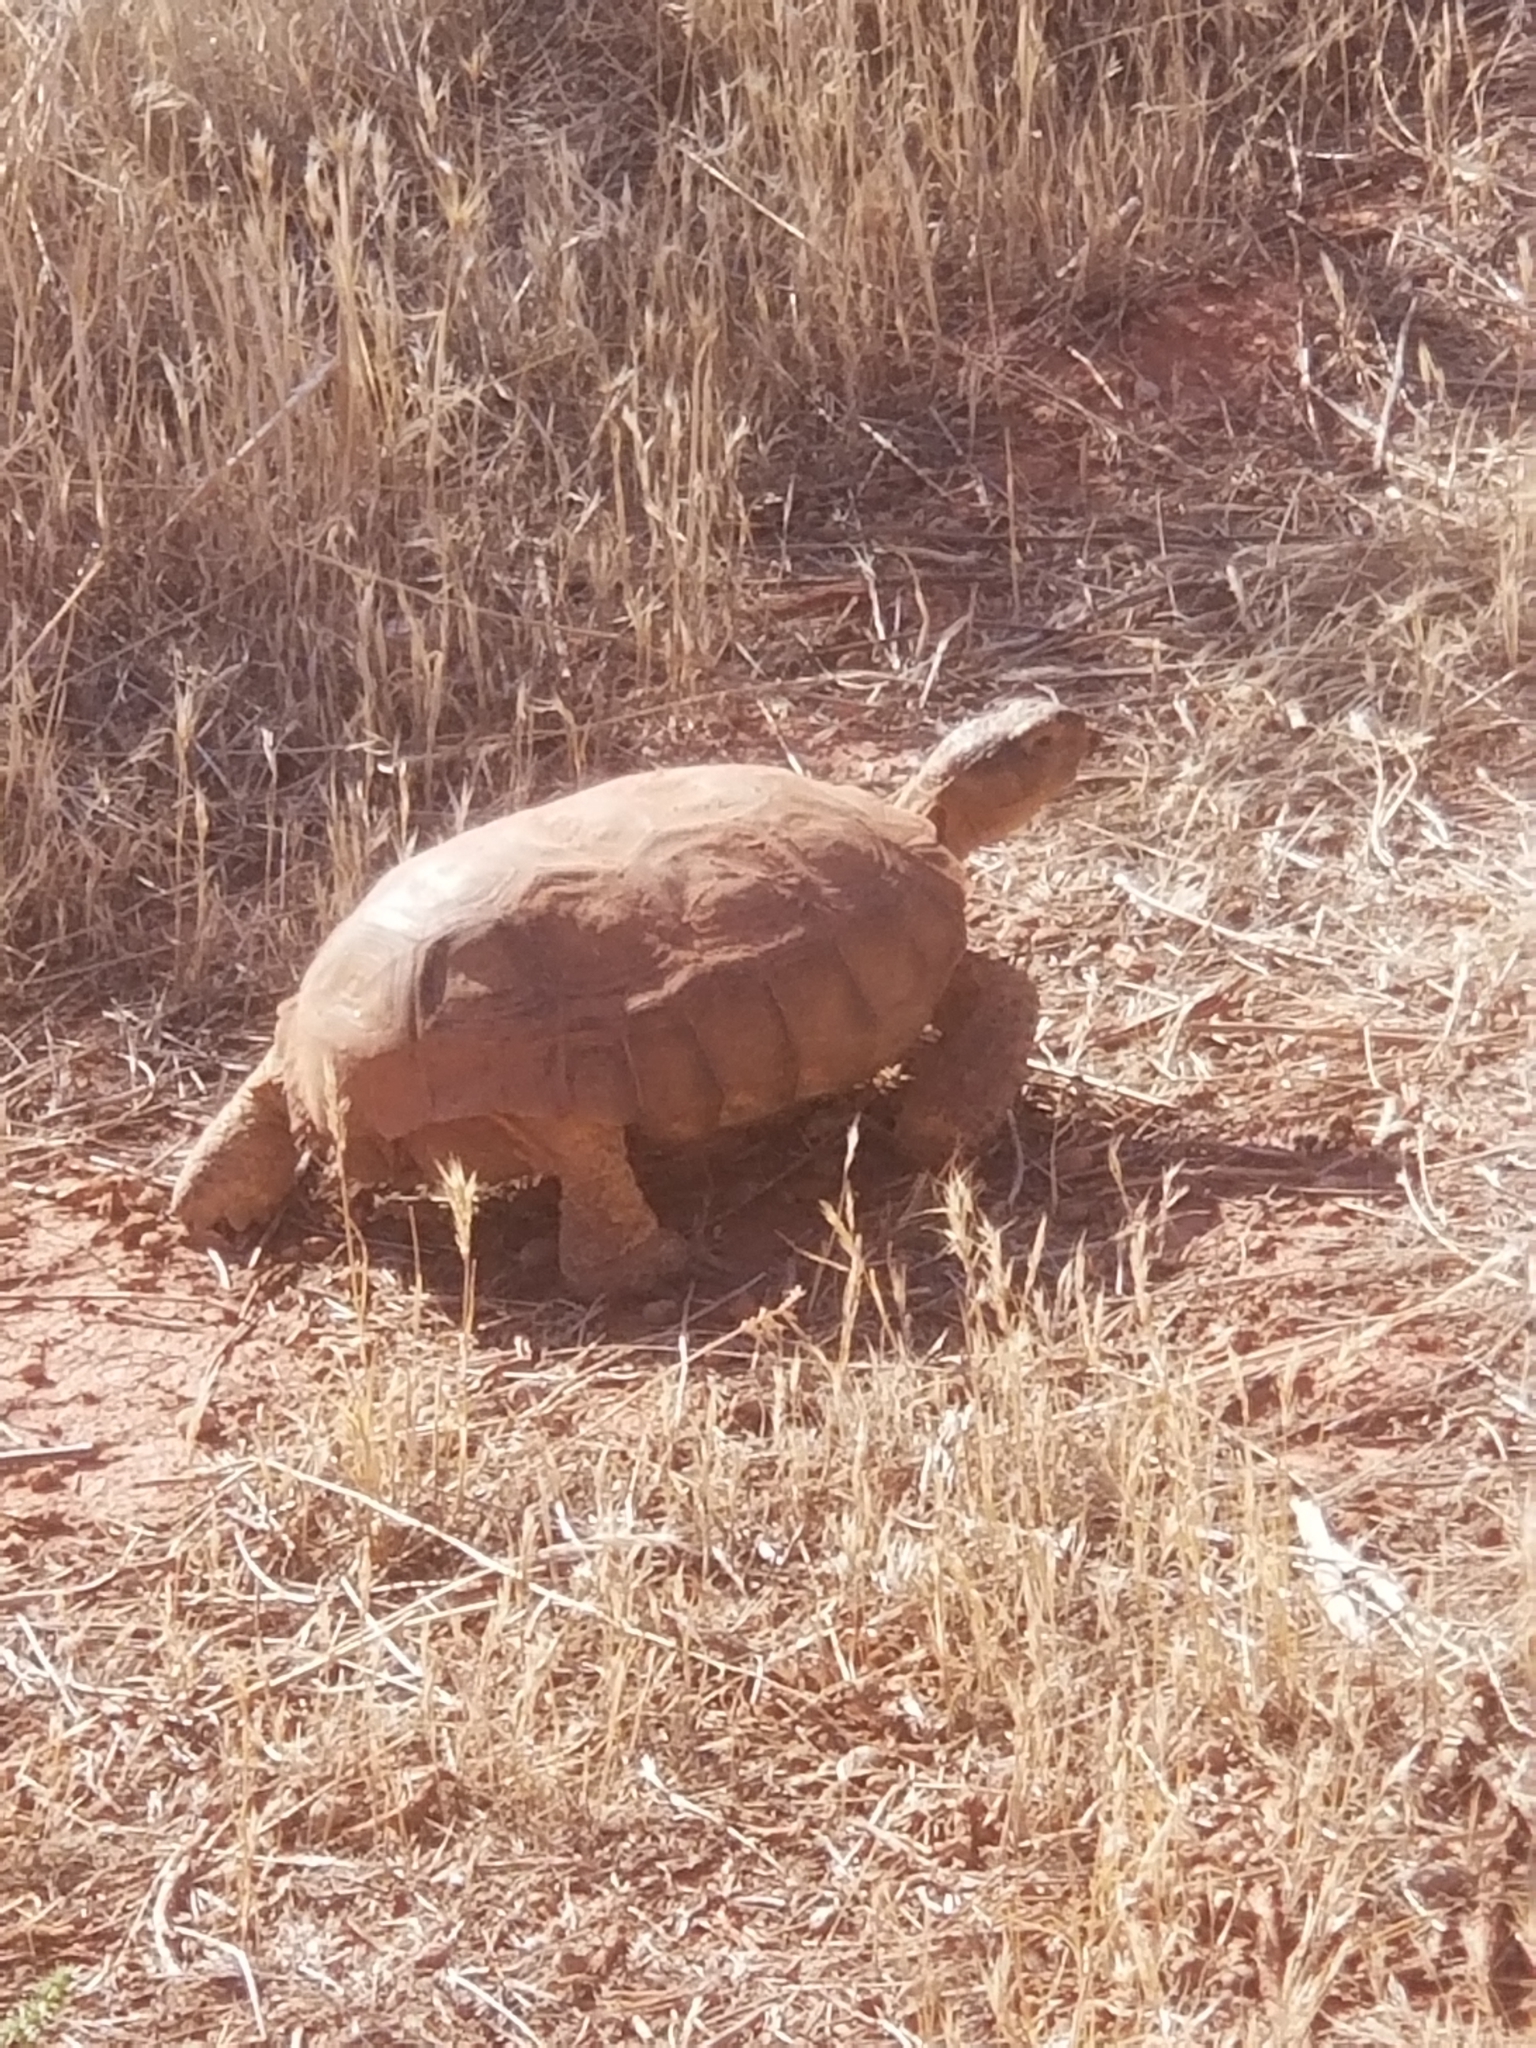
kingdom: Animalia
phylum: Chordata
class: Testudines
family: Testudinidae
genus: Gopherus
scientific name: Gopherus agassizii
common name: Mojave desert tortoise
